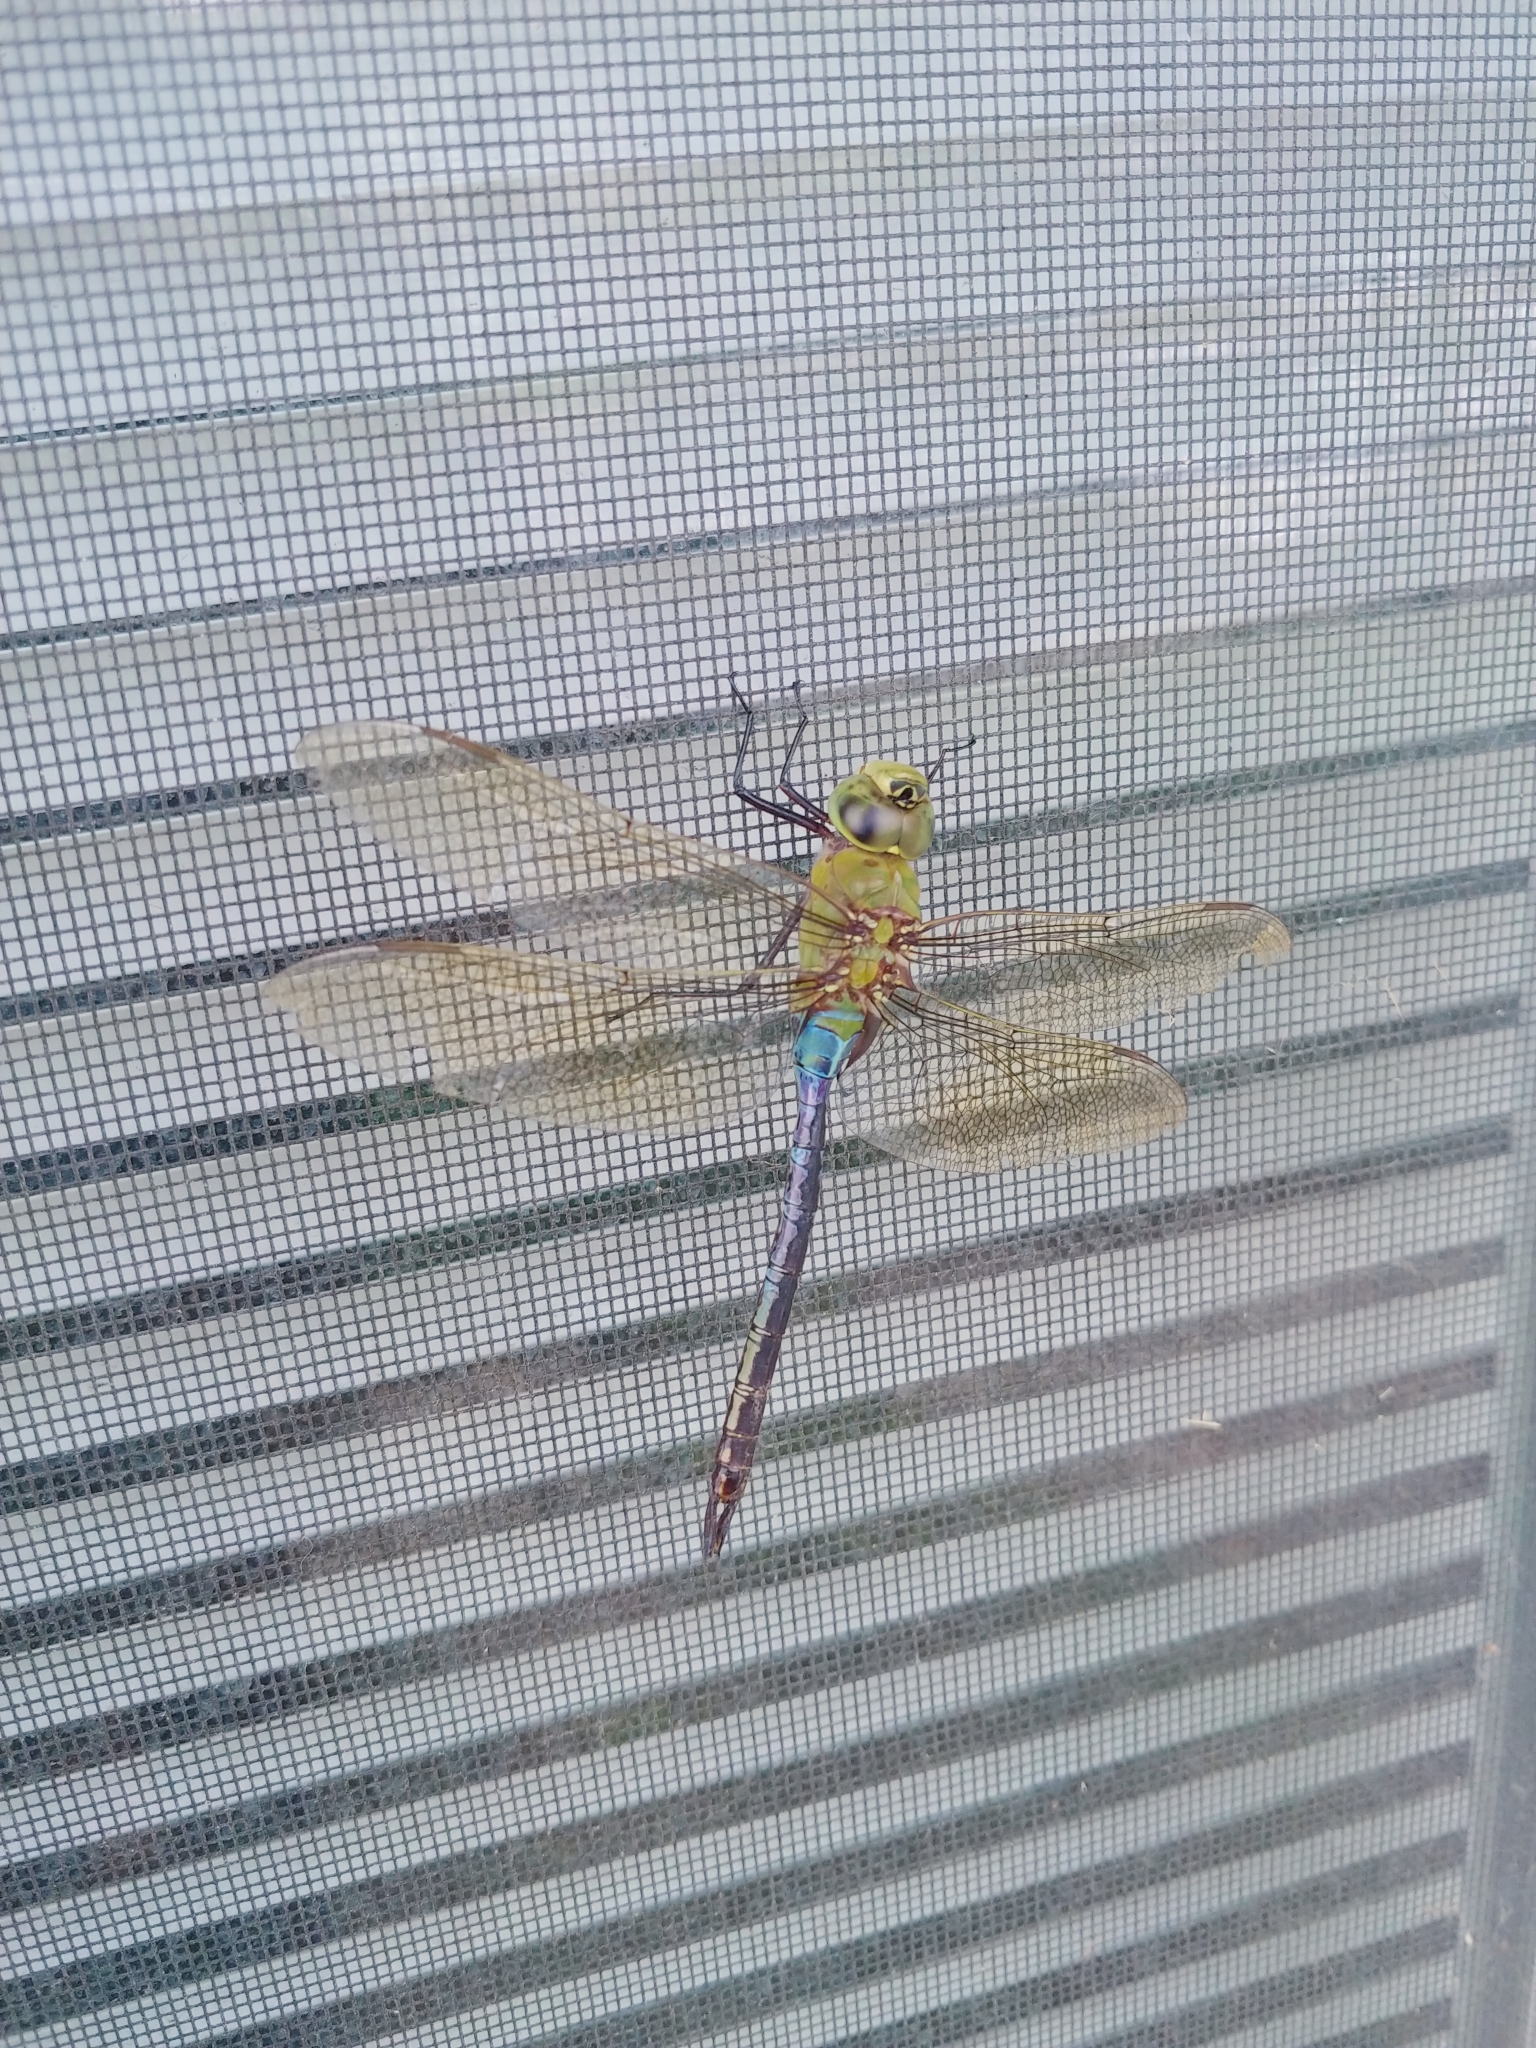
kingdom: Animalia
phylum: Arthropoda
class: Insecta
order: Odonata
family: Aeshnidae
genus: Anax
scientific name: Anax junius
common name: Common green darner
